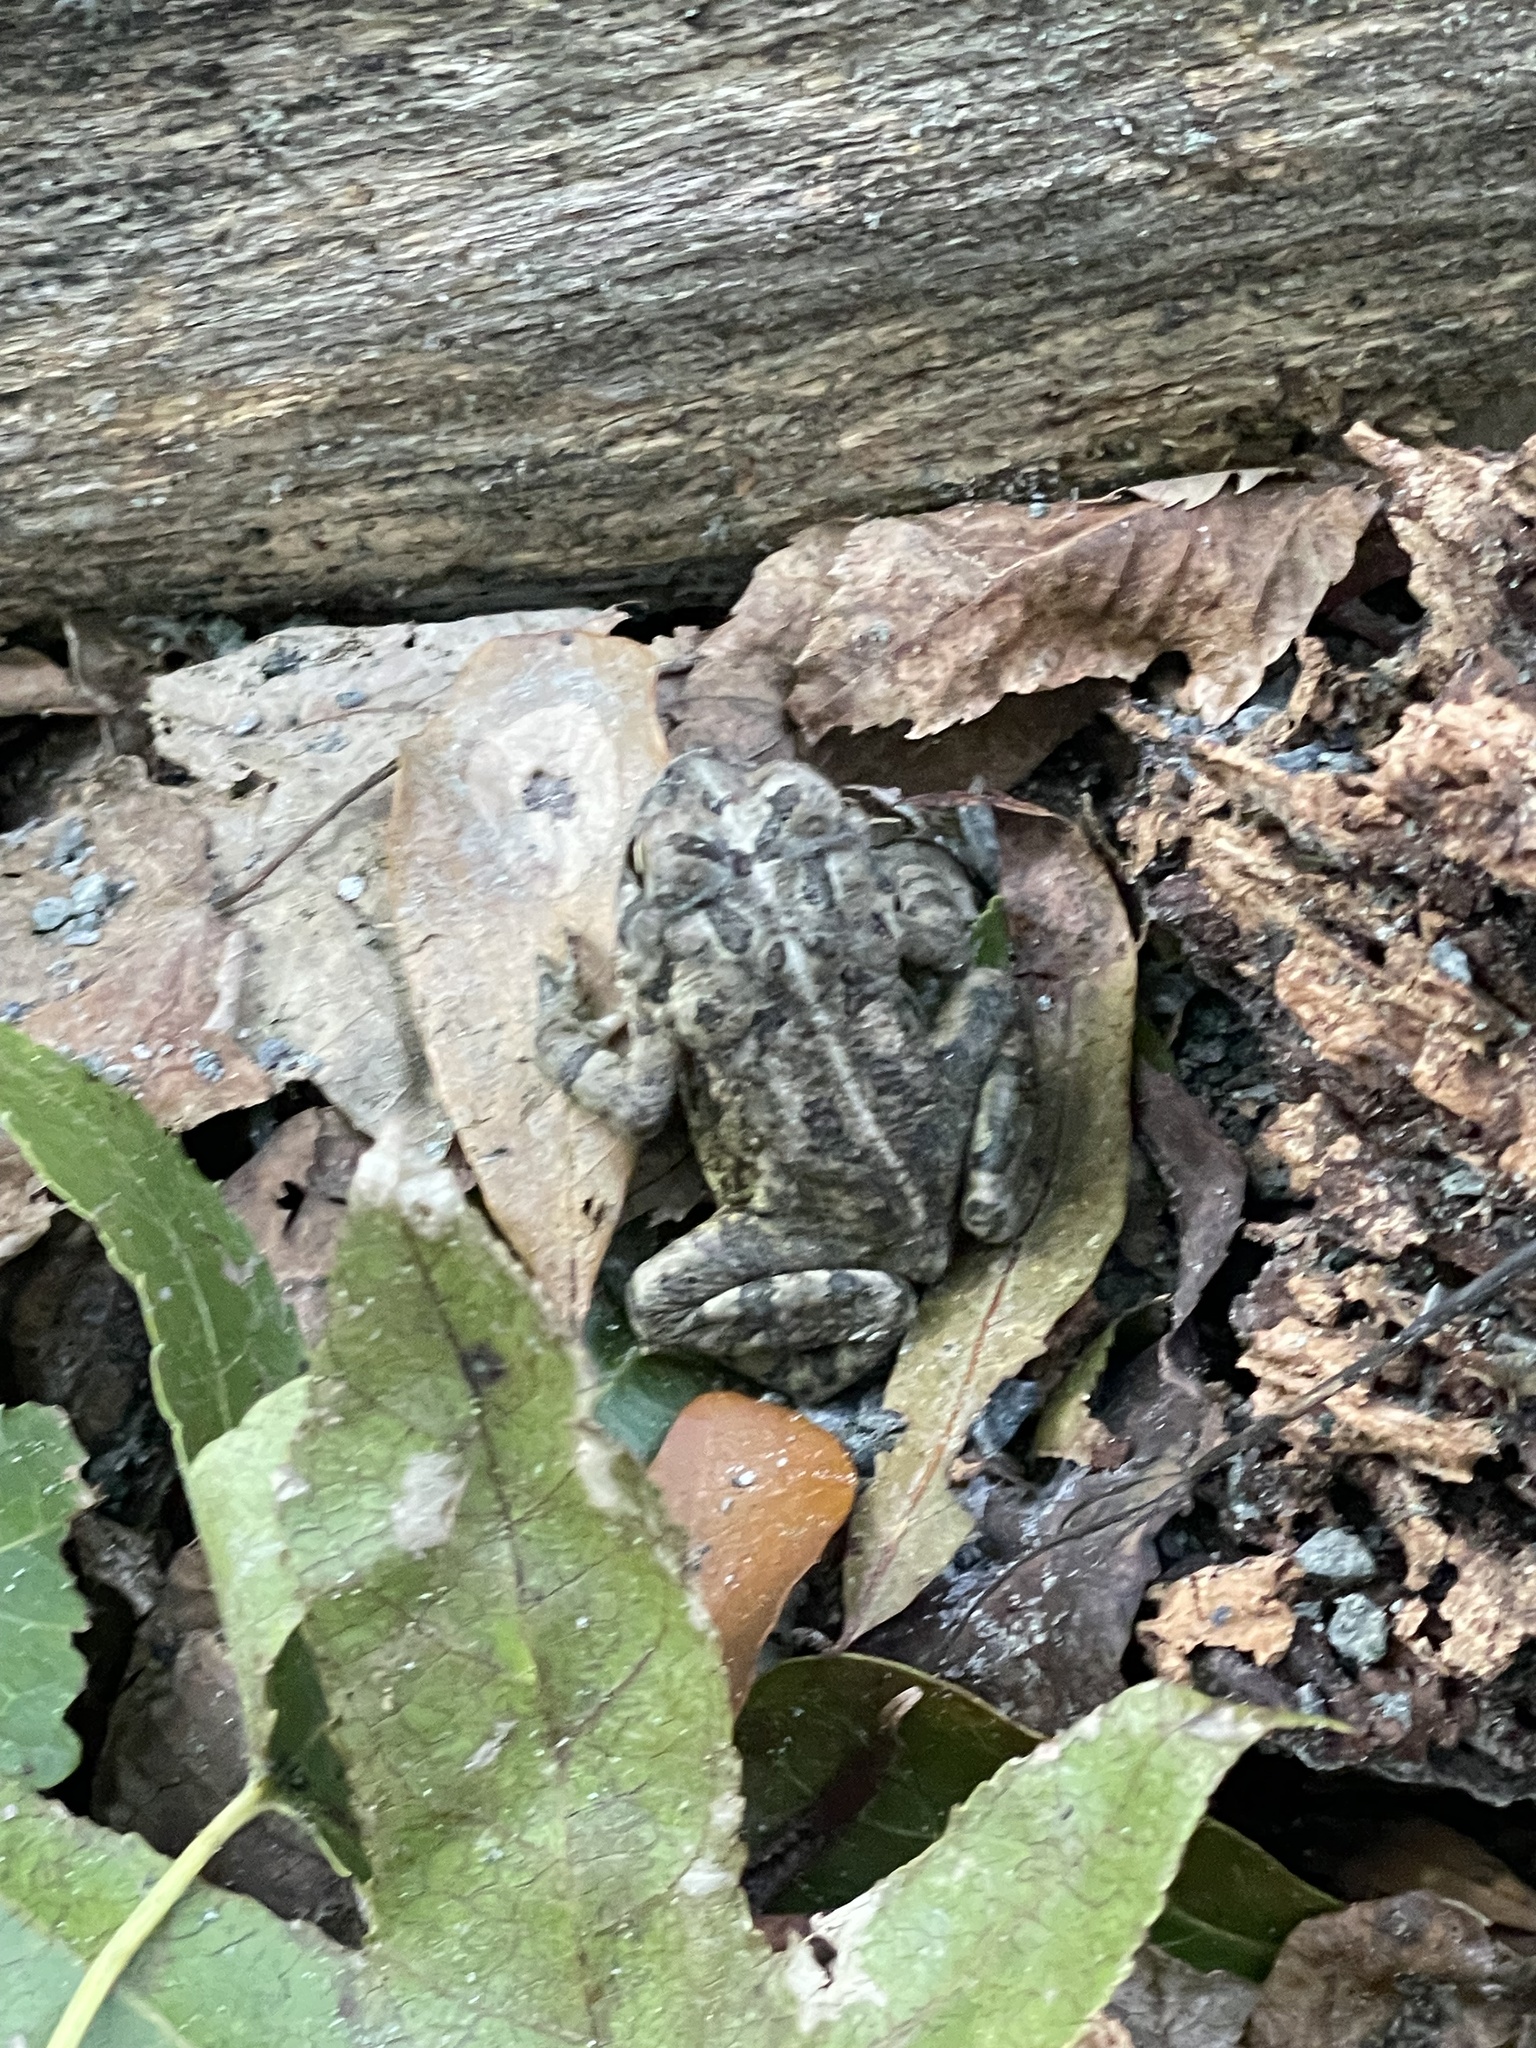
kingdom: Animalia
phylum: Chordata
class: Amphibia
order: Anura
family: Bufonidae
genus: Anaxyrus
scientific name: Anaxyrus fowleri
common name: Fowler's toad
